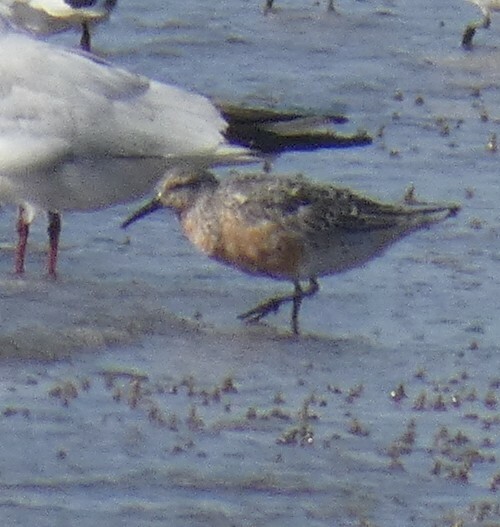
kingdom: Animalia
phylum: Chordata
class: Aves
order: Charadriiformes
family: Scolopacidae
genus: Calidris
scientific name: Calidris canutus
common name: Red knot
